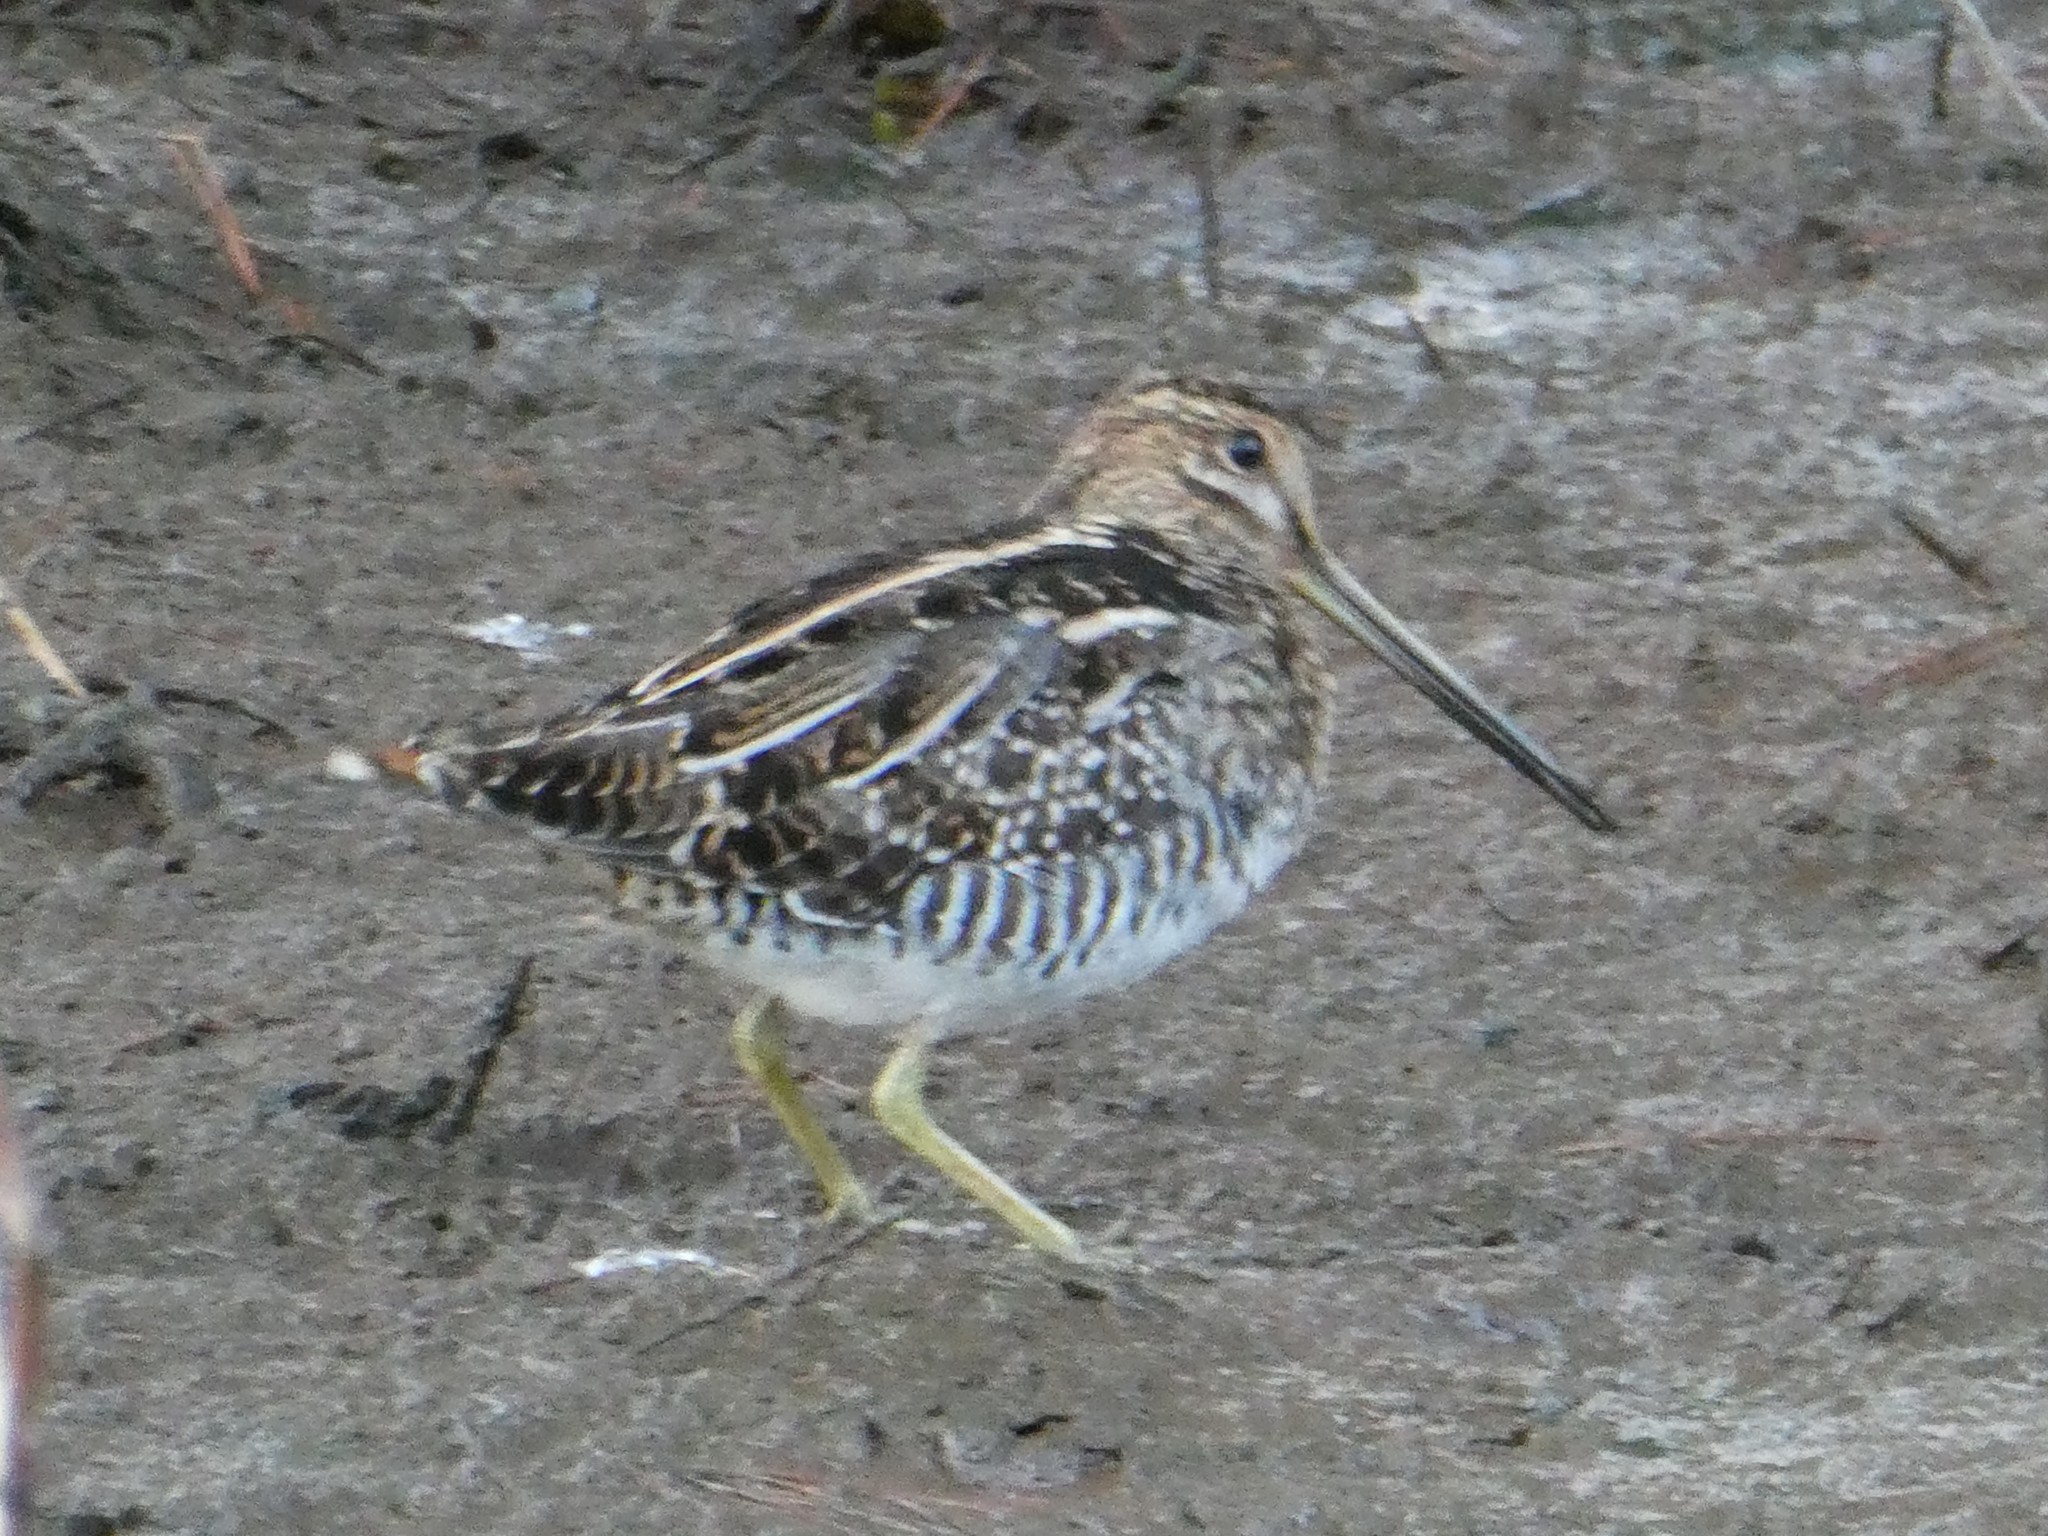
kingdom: Animalia
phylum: Chordata
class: Aves
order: Charadriiformes
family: Scolopacidae
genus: Gallinago
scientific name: Gallinago delicata
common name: Wilson's snipe
